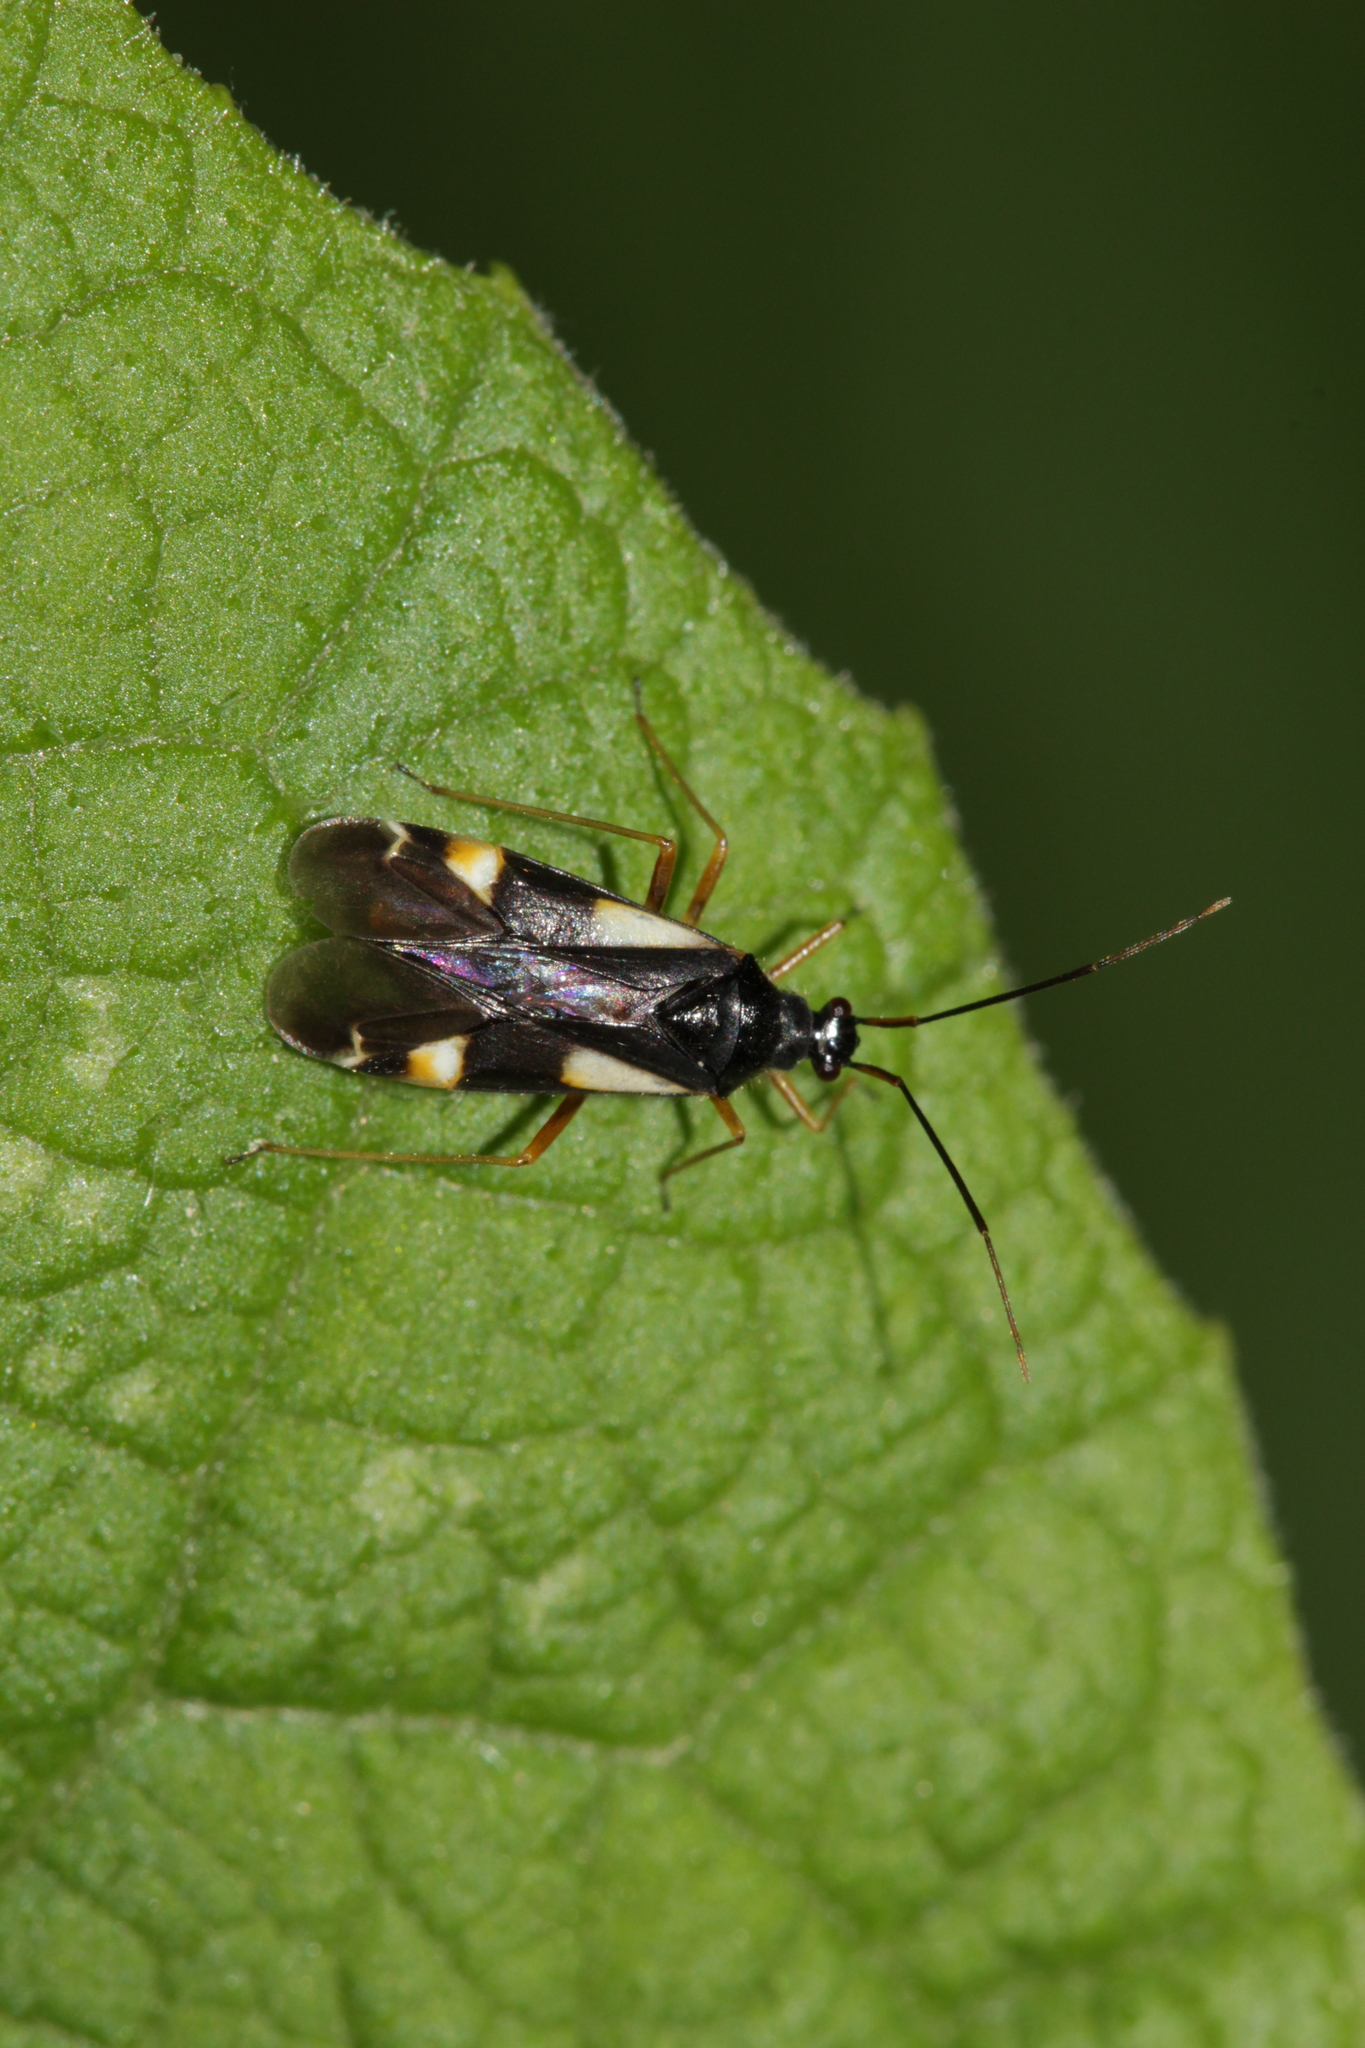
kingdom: Animalia
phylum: Arthropoda
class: Insecta
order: Hemiptera
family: Miridae
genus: Dryophilocoris
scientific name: Dryophilocoris flavoquadrimaculatus
